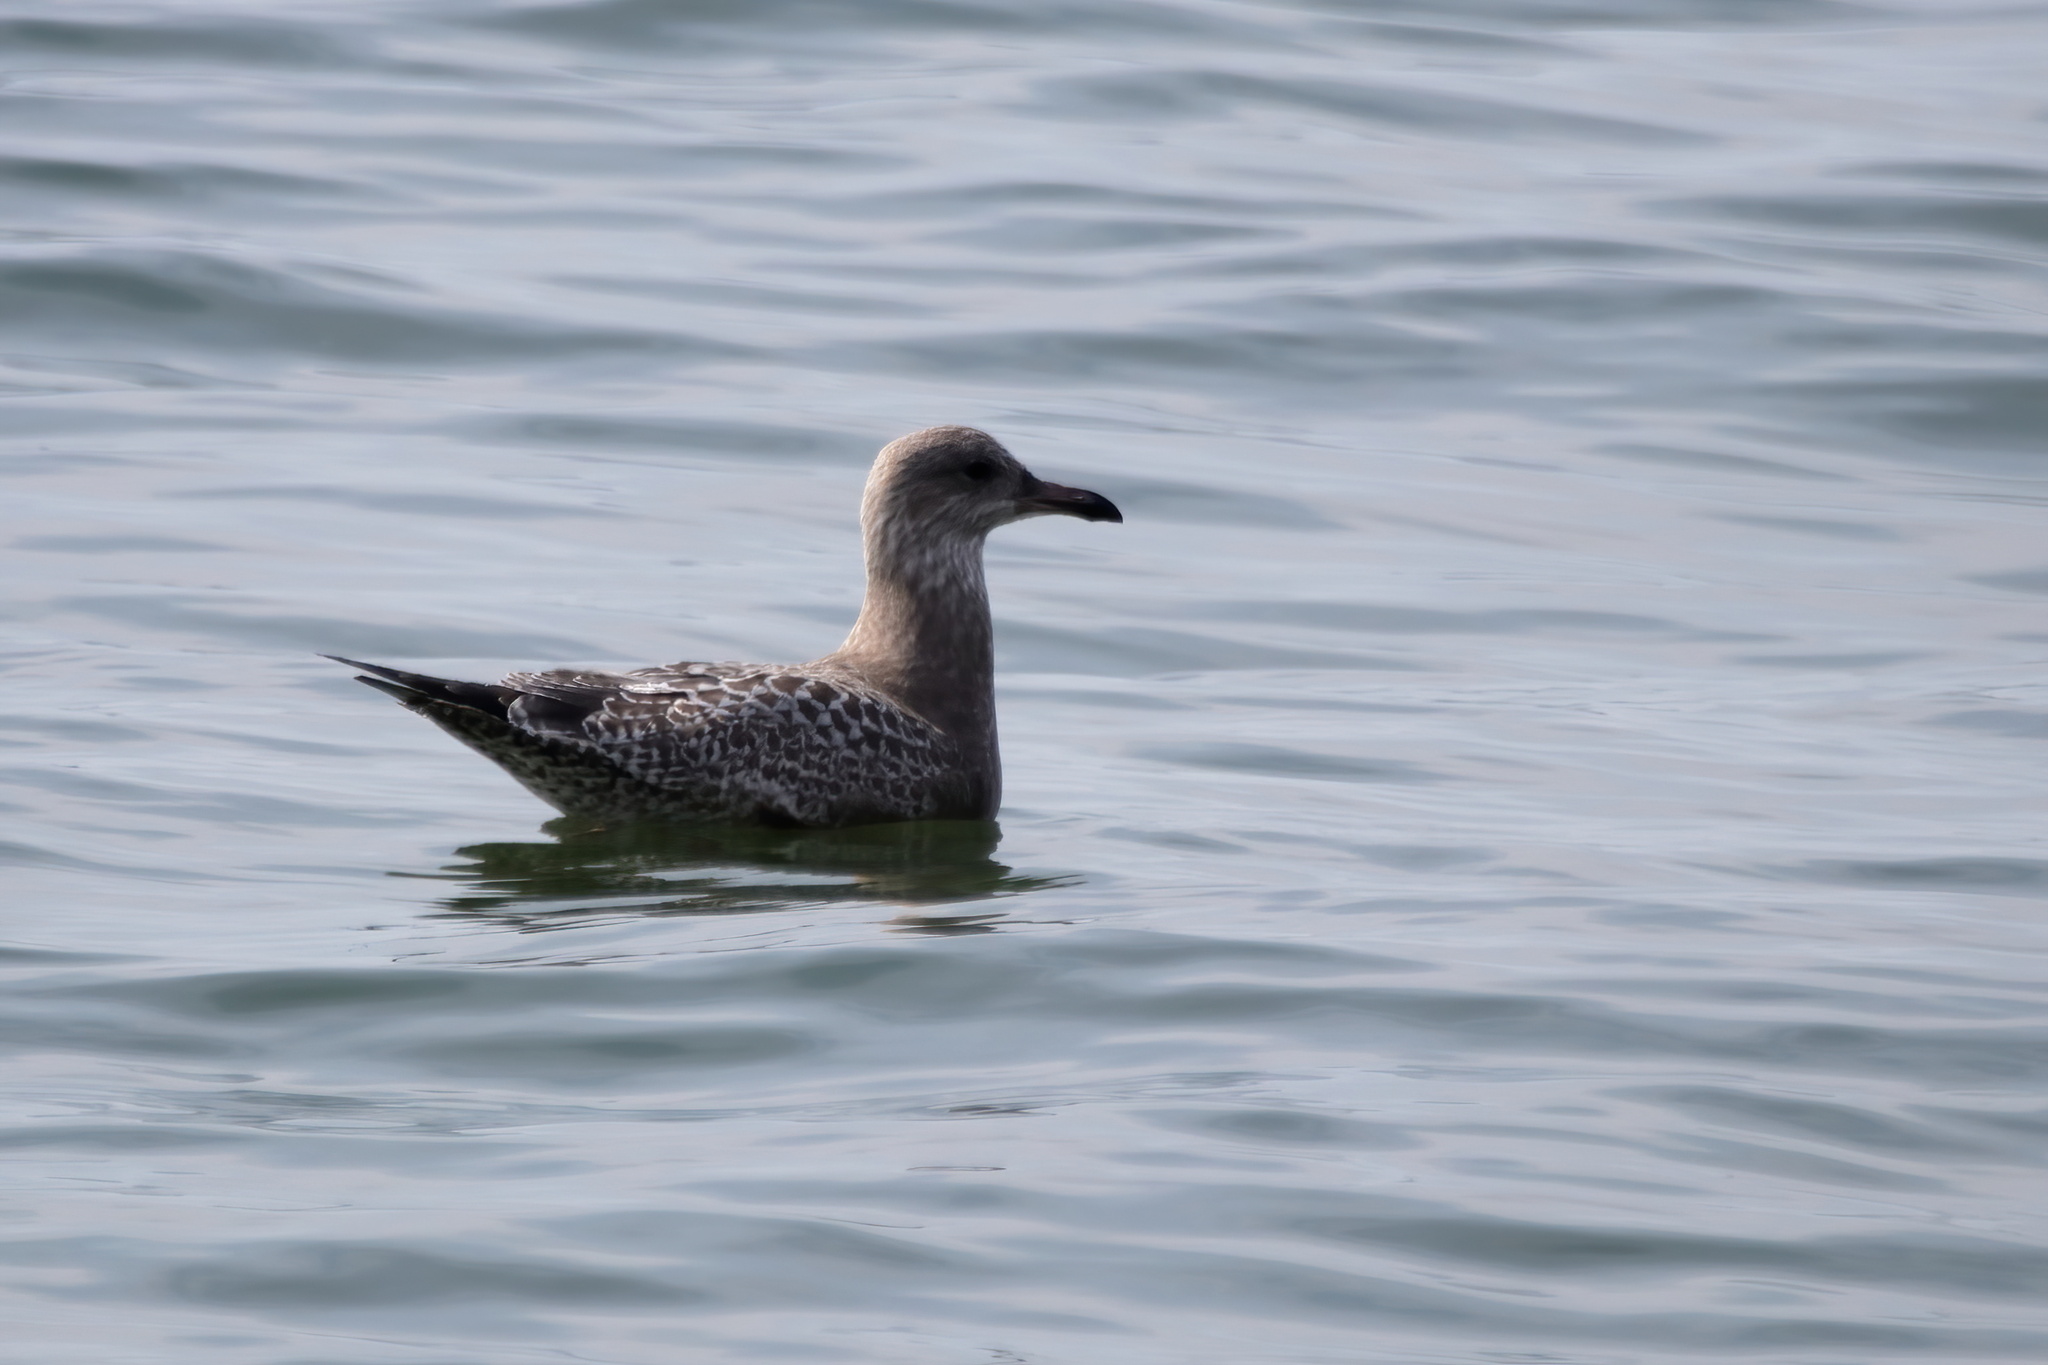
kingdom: Animalia
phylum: Chordata
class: Aves
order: Charadriiformes
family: Laridae
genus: Larus
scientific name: Larus argentatus
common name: Herring gull
